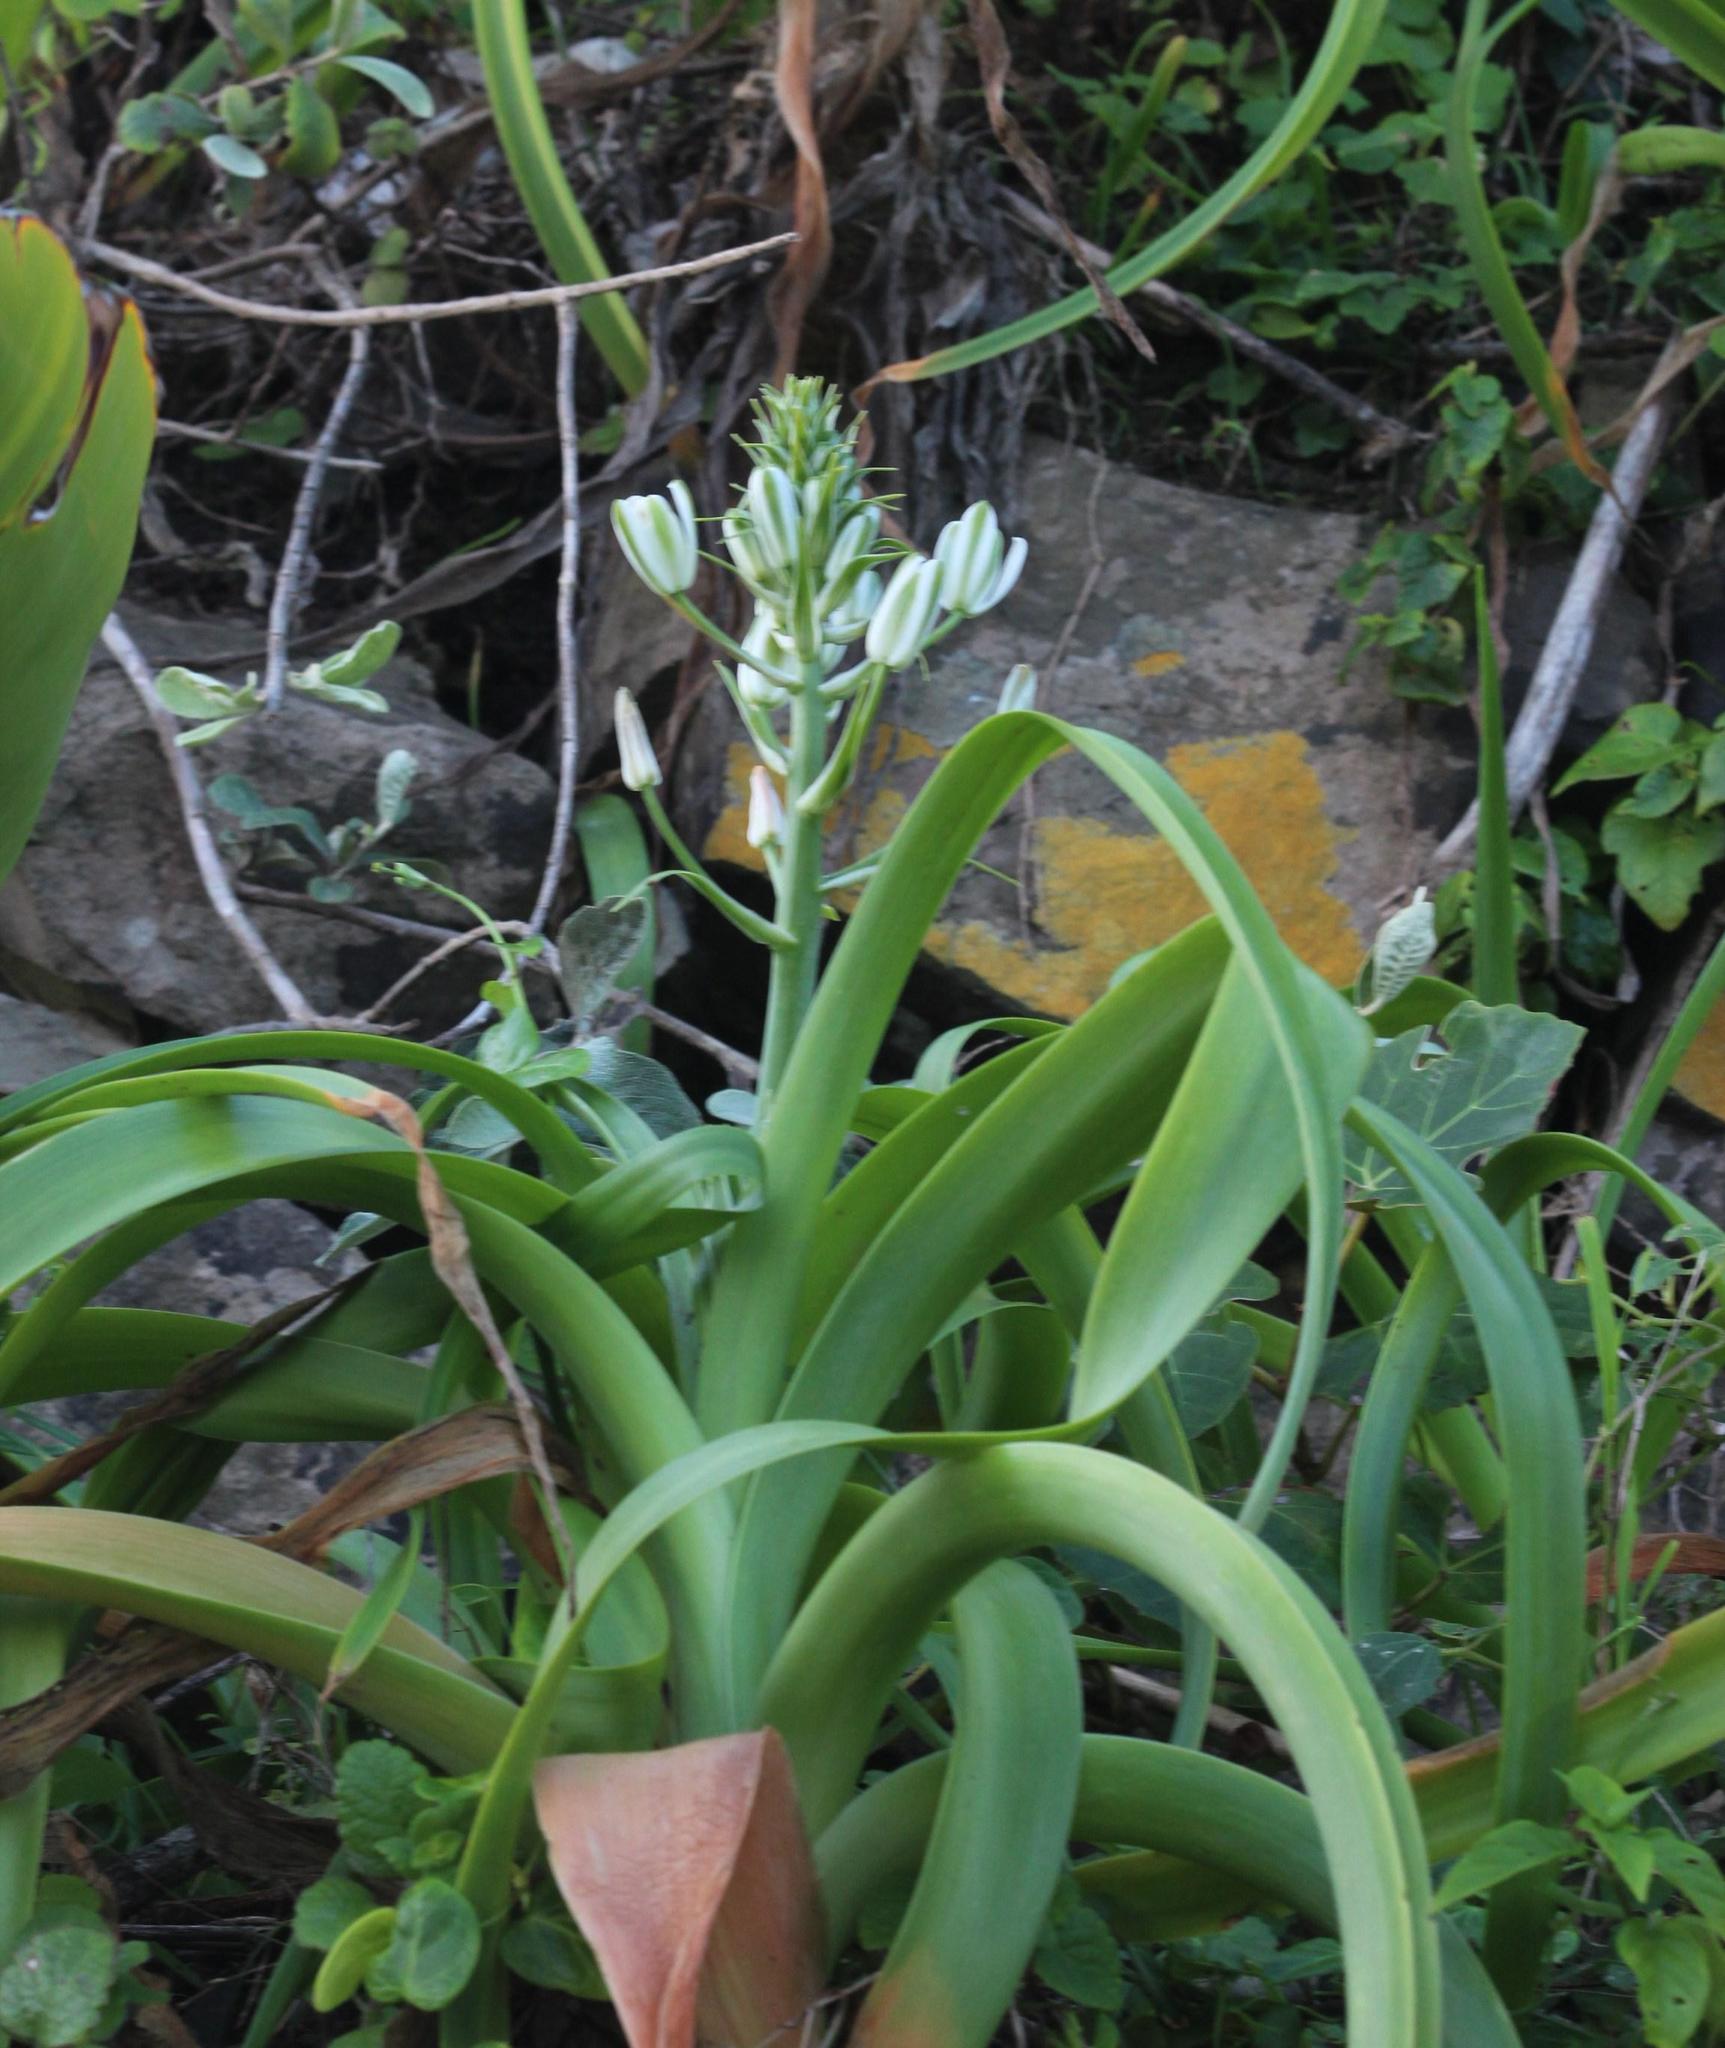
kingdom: Plantae
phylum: Tracheophyta
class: Liliopsida
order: Asparagales
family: Asparagaceae
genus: Albuca
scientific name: Albuca batteniana
